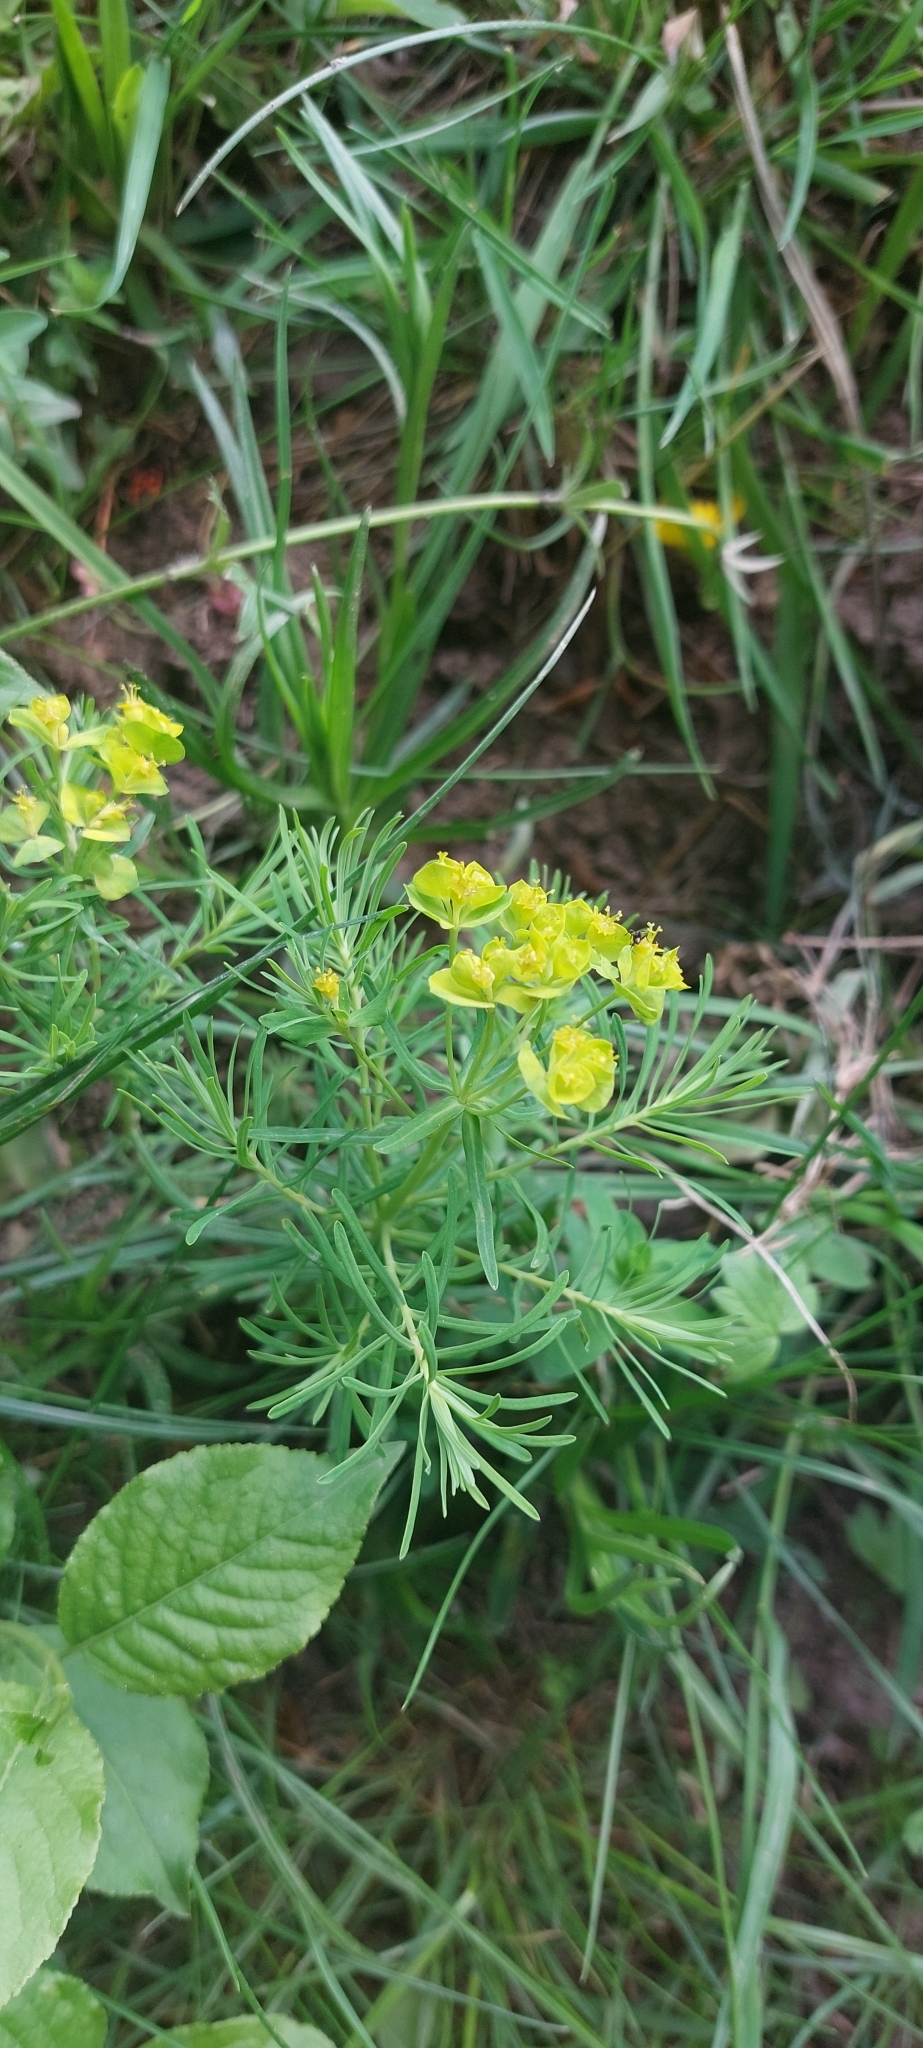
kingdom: Plantae
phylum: Tracheophyta
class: Magnoliopsida
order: Malpighiales
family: Euphorbiaceae
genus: Euphorbia
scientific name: Euphorbia cyparissias
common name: Cypress spurge
